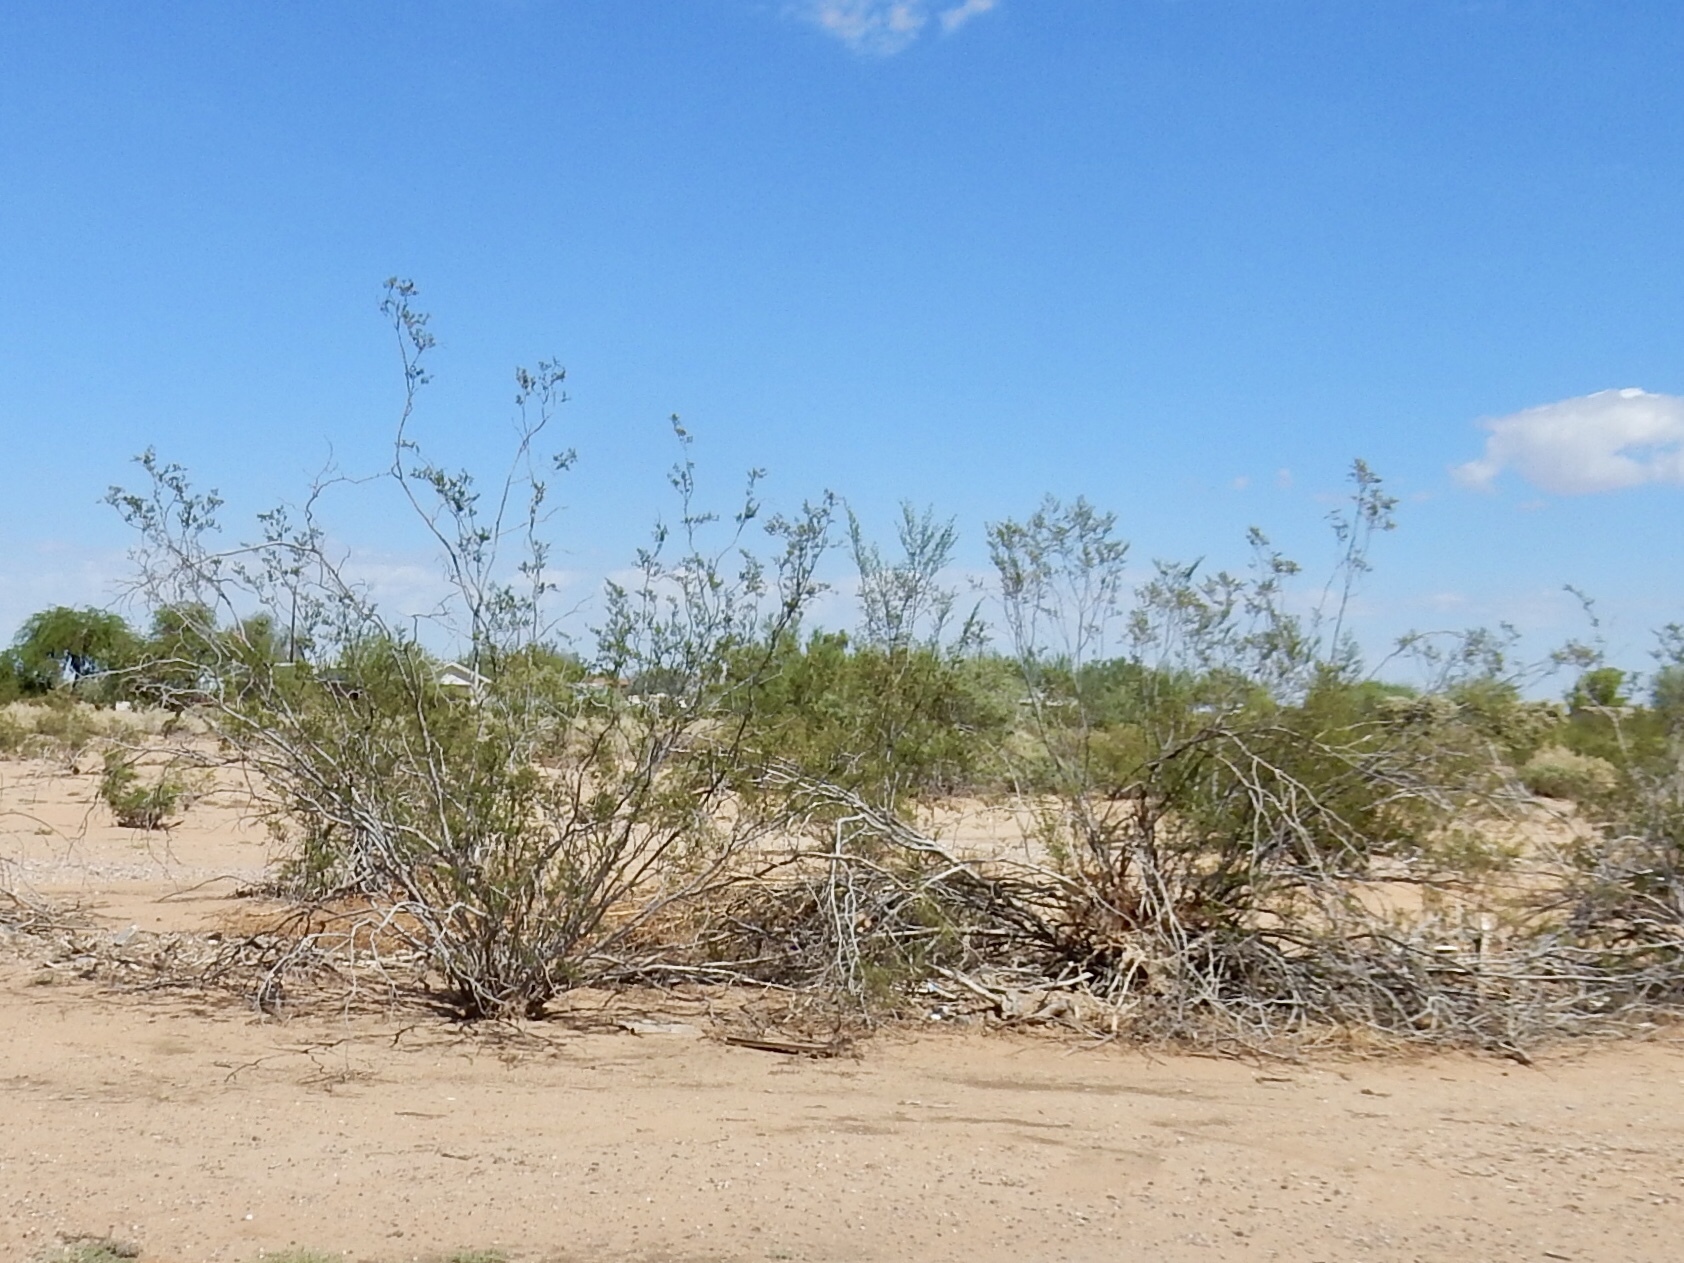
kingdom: Plantae
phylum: Tracheophyta
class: Magnoliopsida
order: Zygophyllales
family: Zygophyllaceae
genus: Larrea
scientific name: Larrea tridentata
